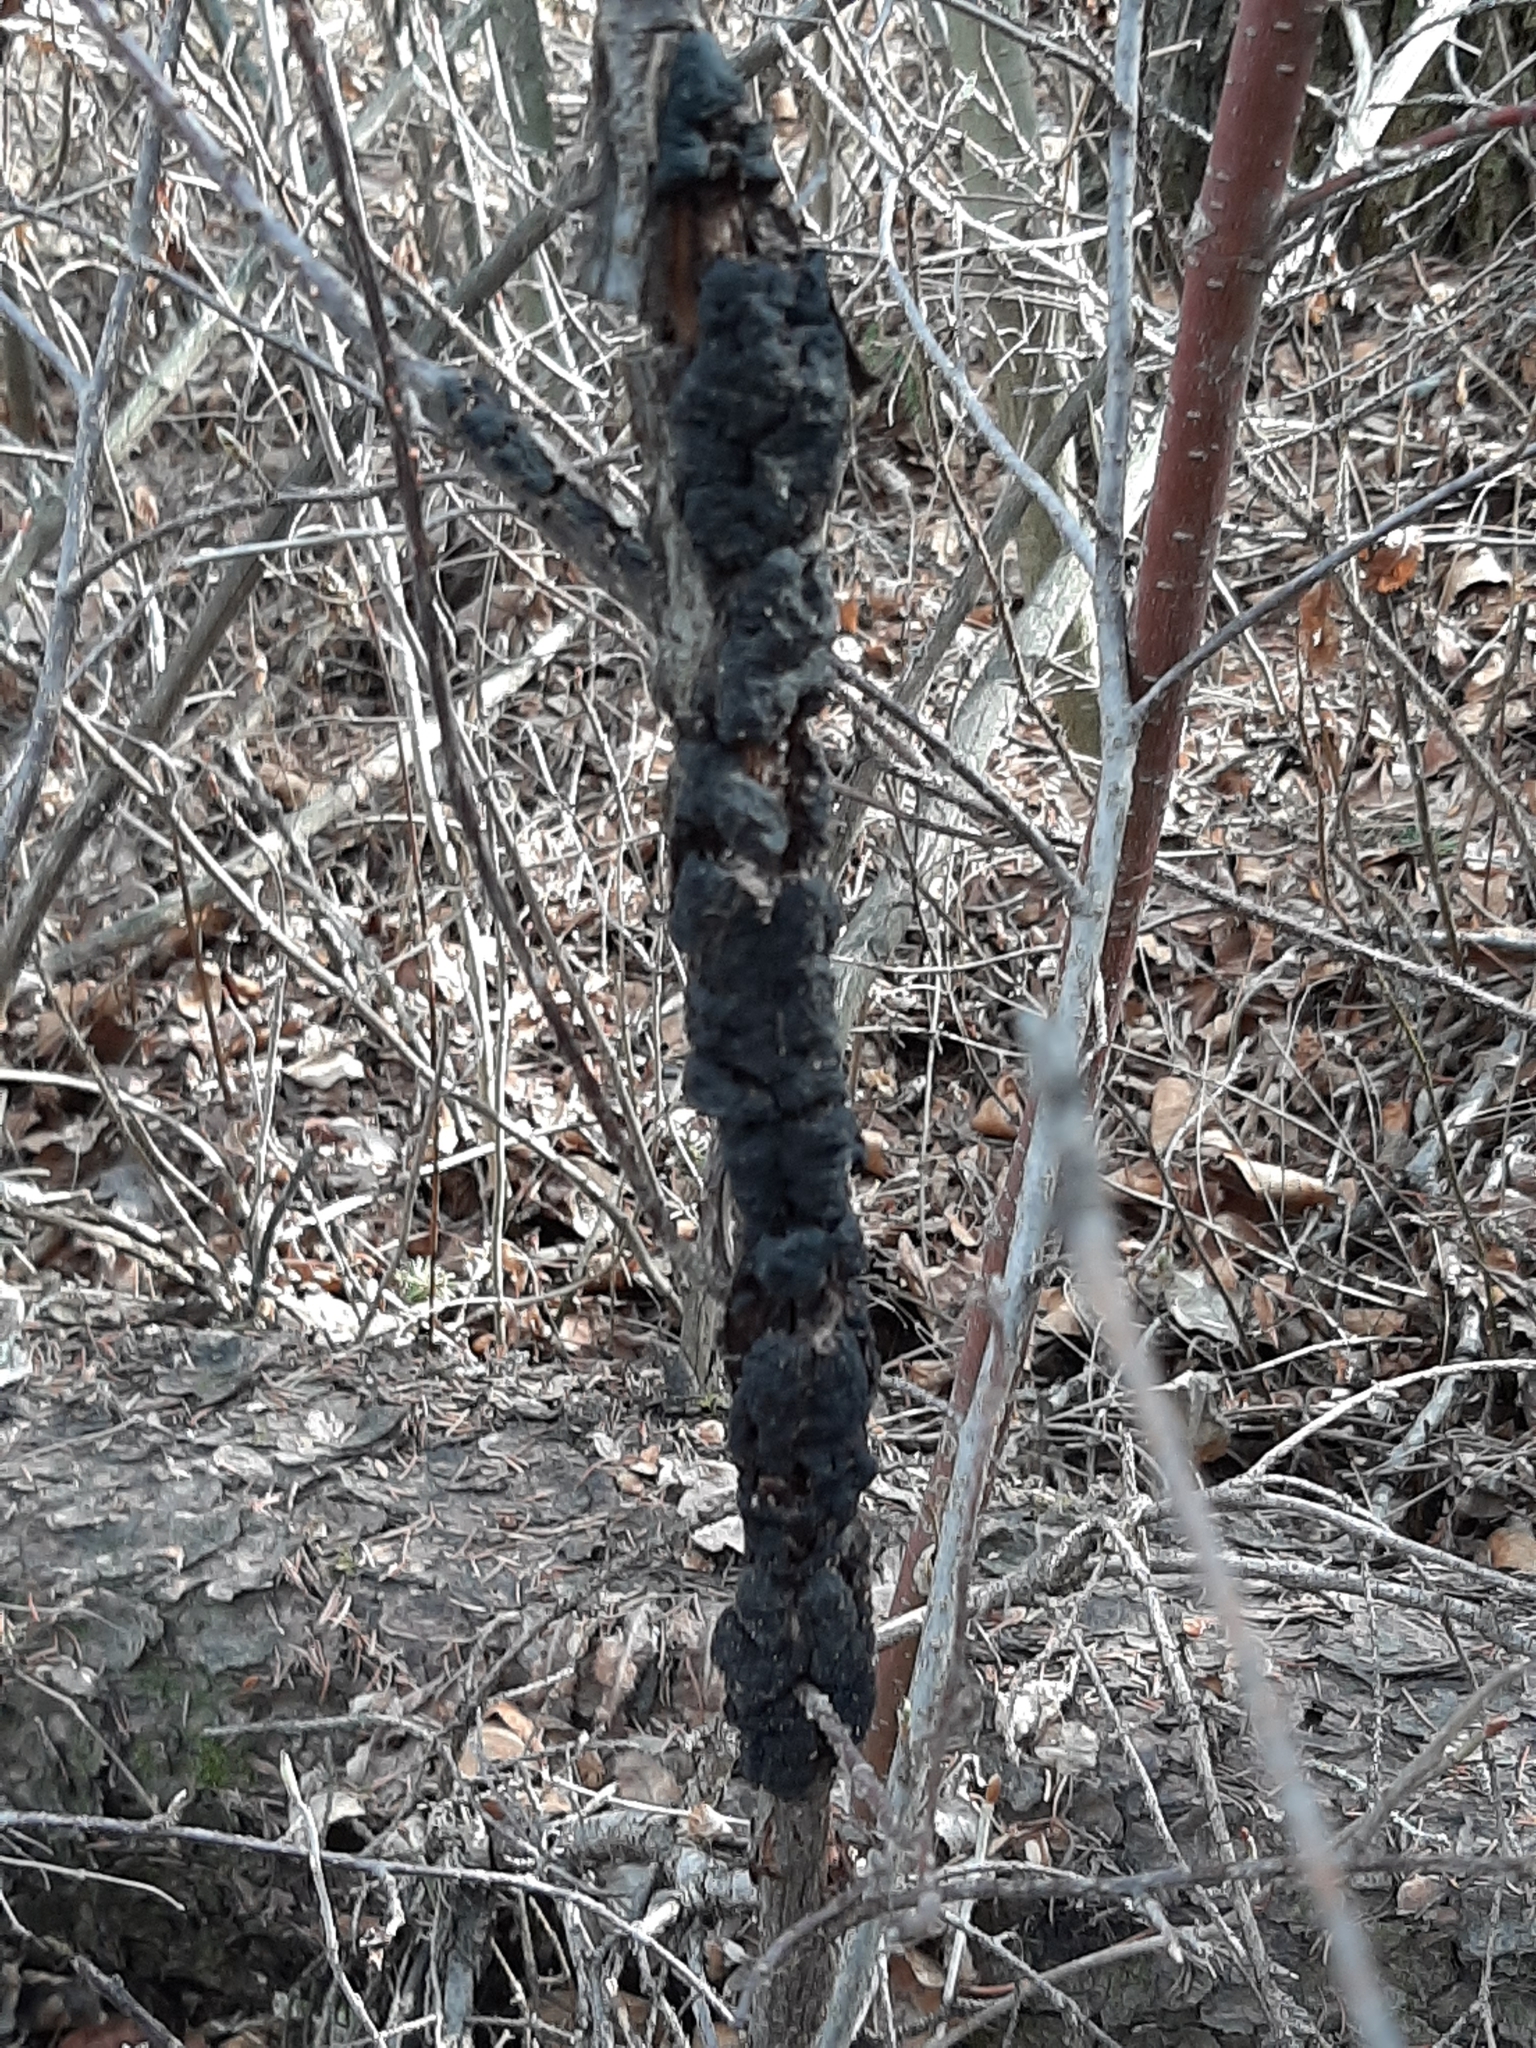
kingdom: Fungi
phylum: Ascomycota
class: Dothideomycetes
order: Venturiales
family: Venturiaceae
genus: Apiosporina
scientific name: Apiosporina morbosa
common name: Black knot
